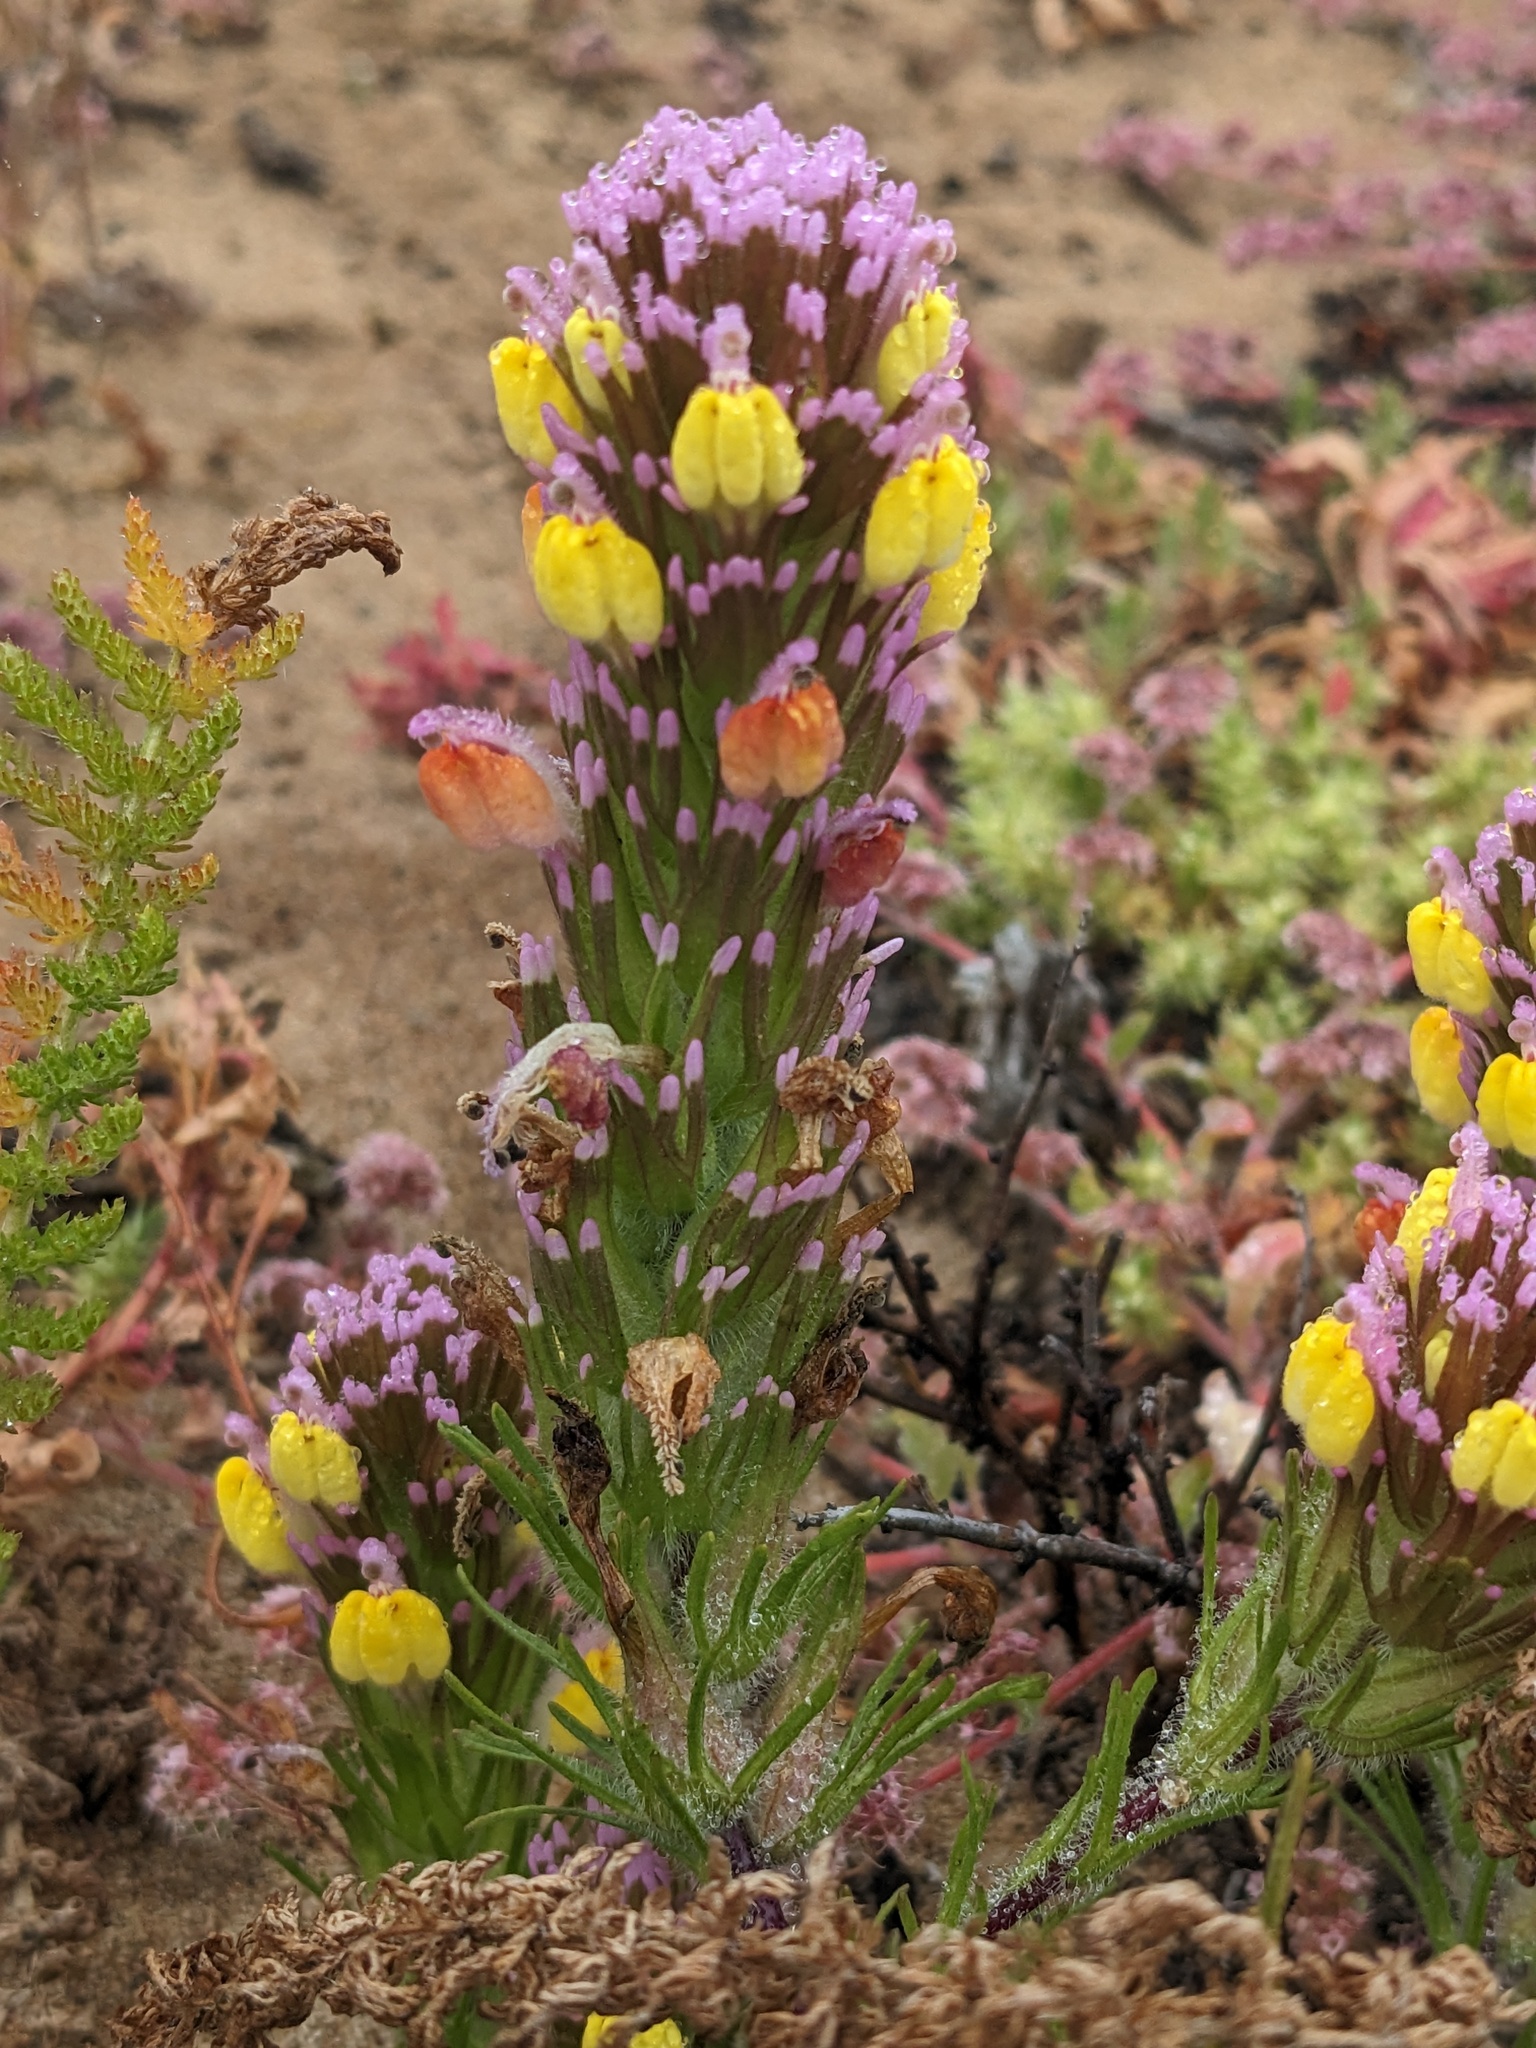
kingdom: Plantae
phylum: Tracheophyta
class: Magnoliopsida
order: Lamiales
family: Orobanchaceae
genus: Castilleja
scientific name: Castilleja exserta
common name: Purple owl-clover
